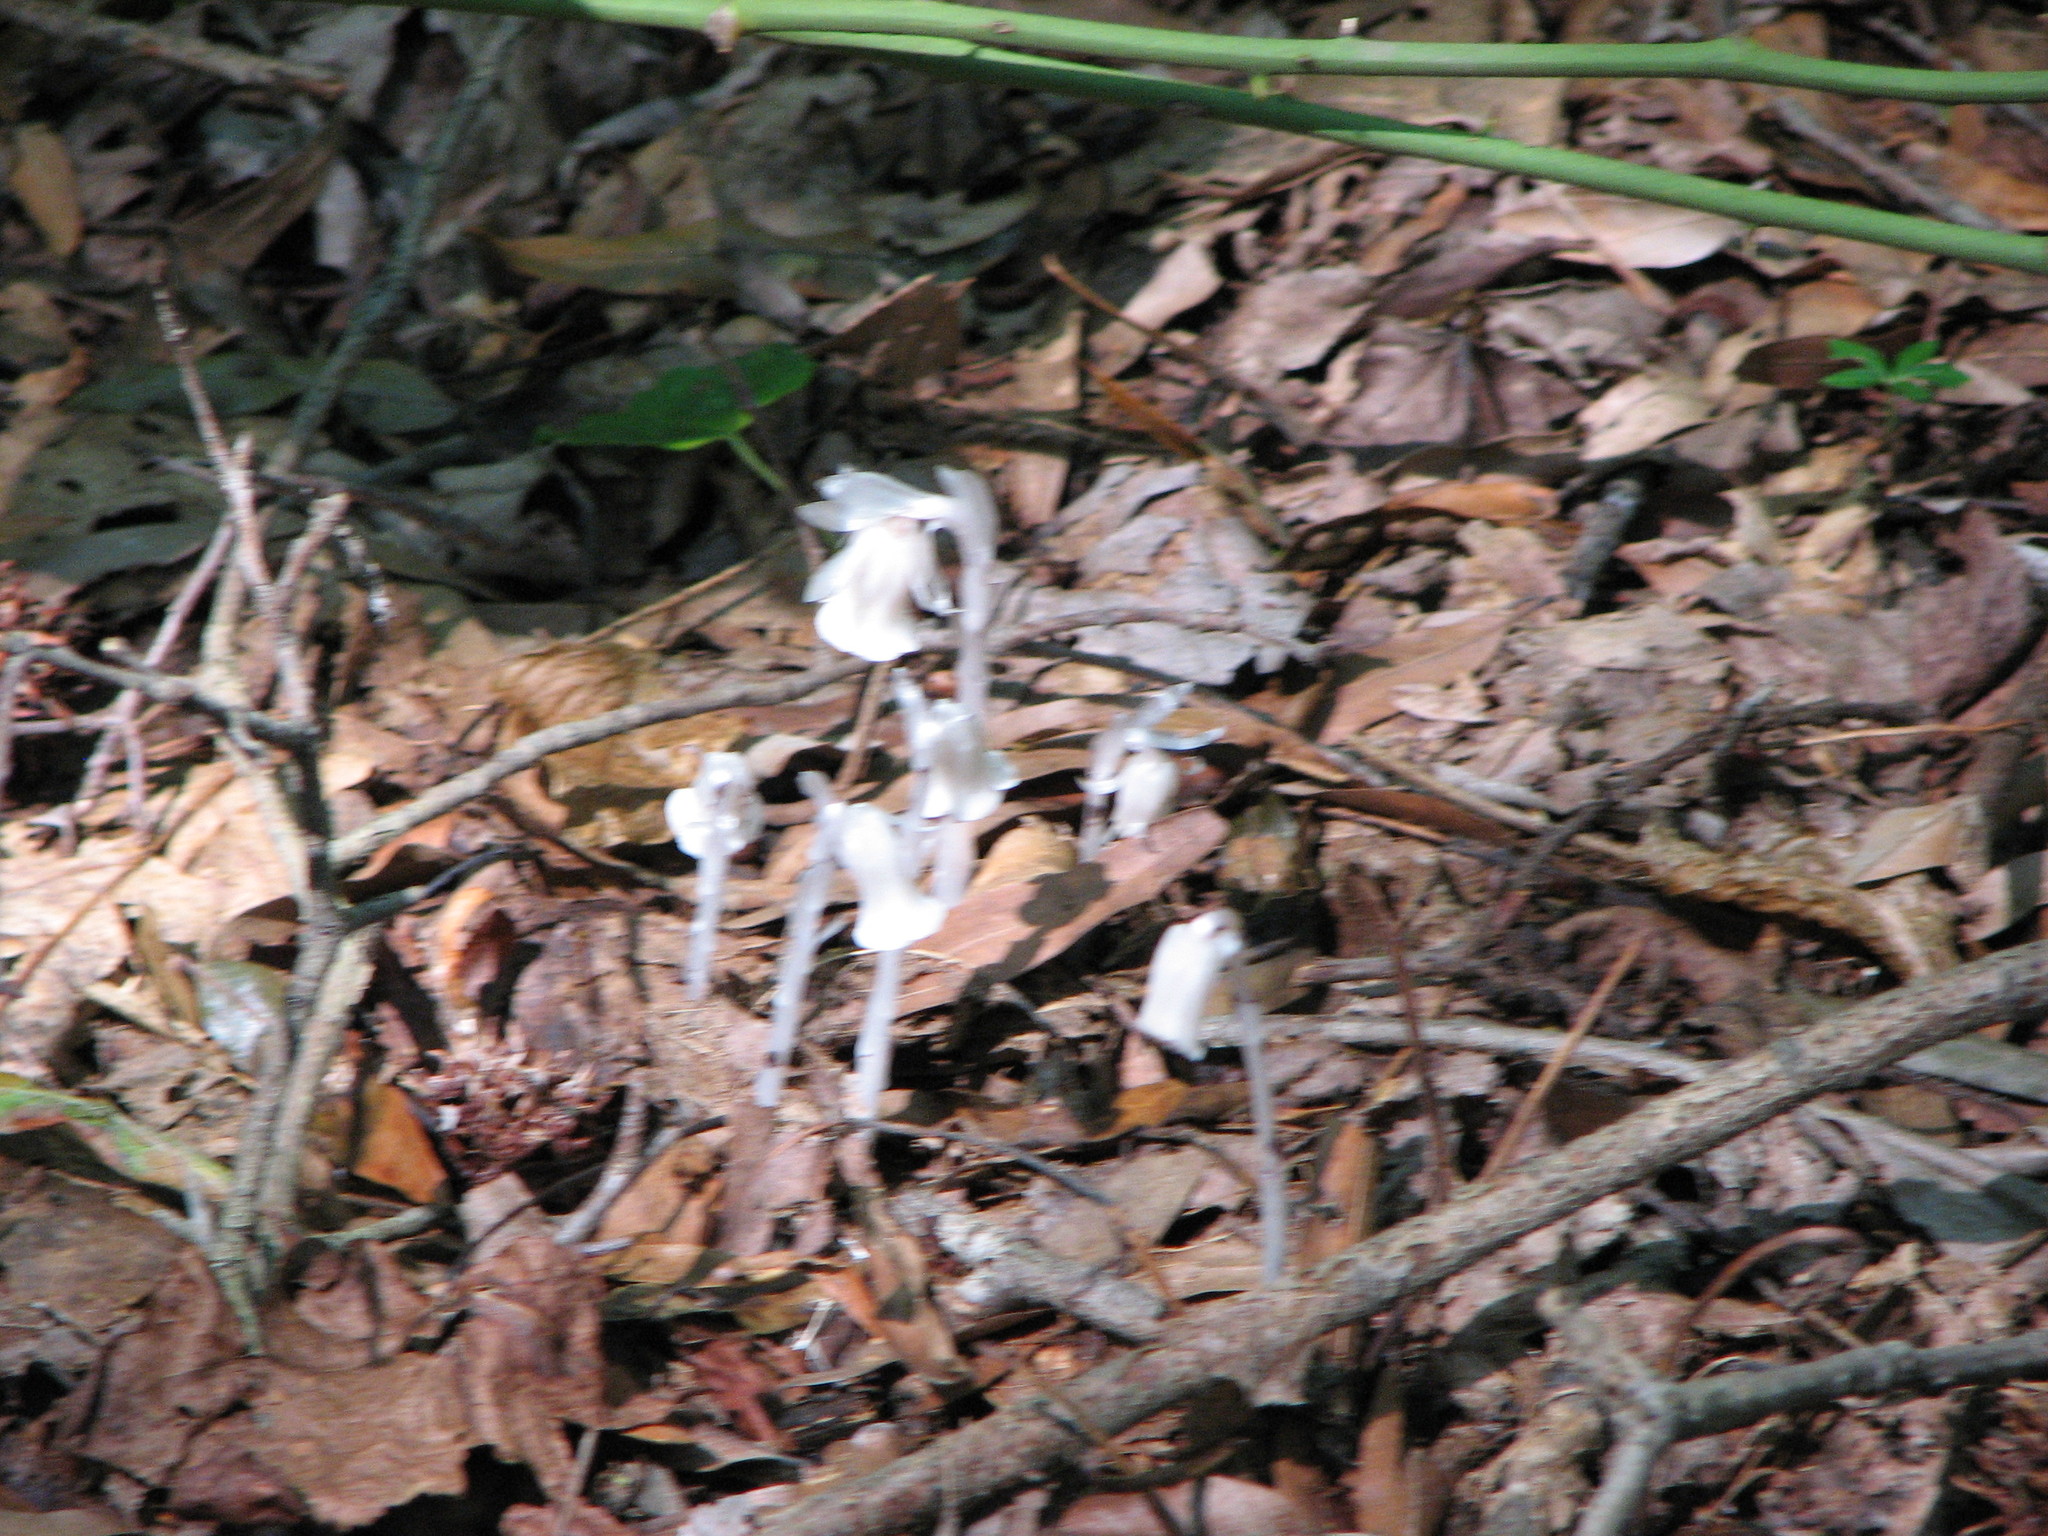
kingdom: Plantae
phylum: Tracheophyta
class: Magnoliopsida
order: Ericales
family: Ericaceae
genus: Monotropa
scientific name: Monotropa uniflora
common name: Convulsion root
